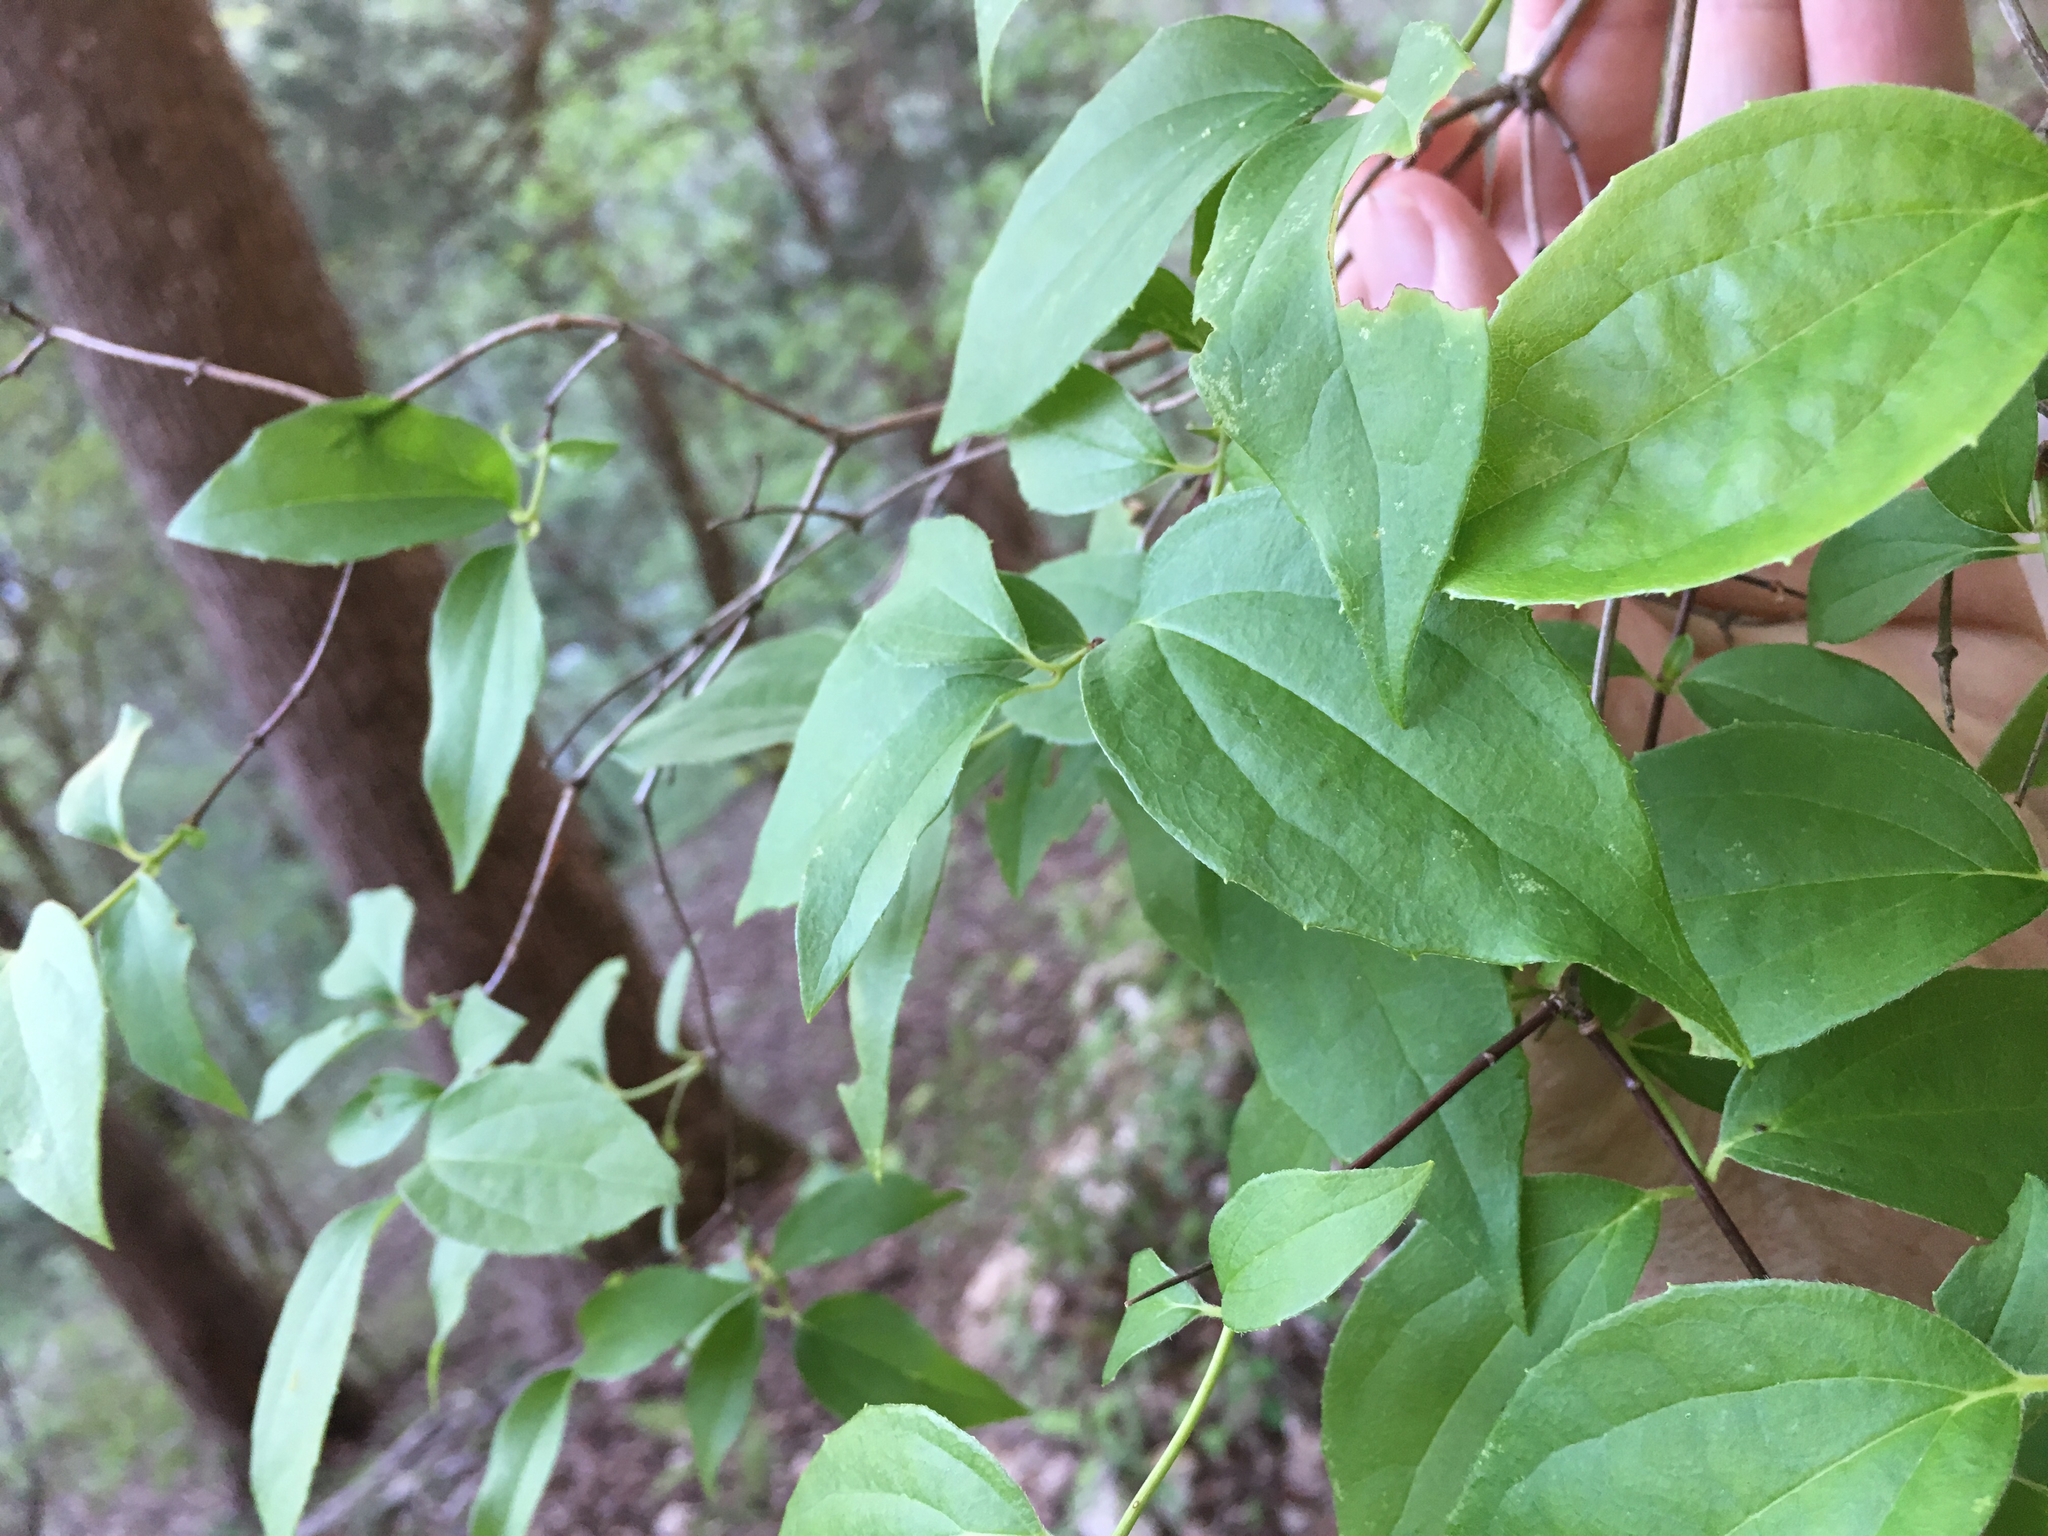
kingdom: Plantae
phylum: Tracheophyta
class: Magnoliopsida
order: Cornales
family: Hydrangeaceae
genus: Philadelphus
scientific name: Philadelphus inodorus
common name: Scentless mock-orange
